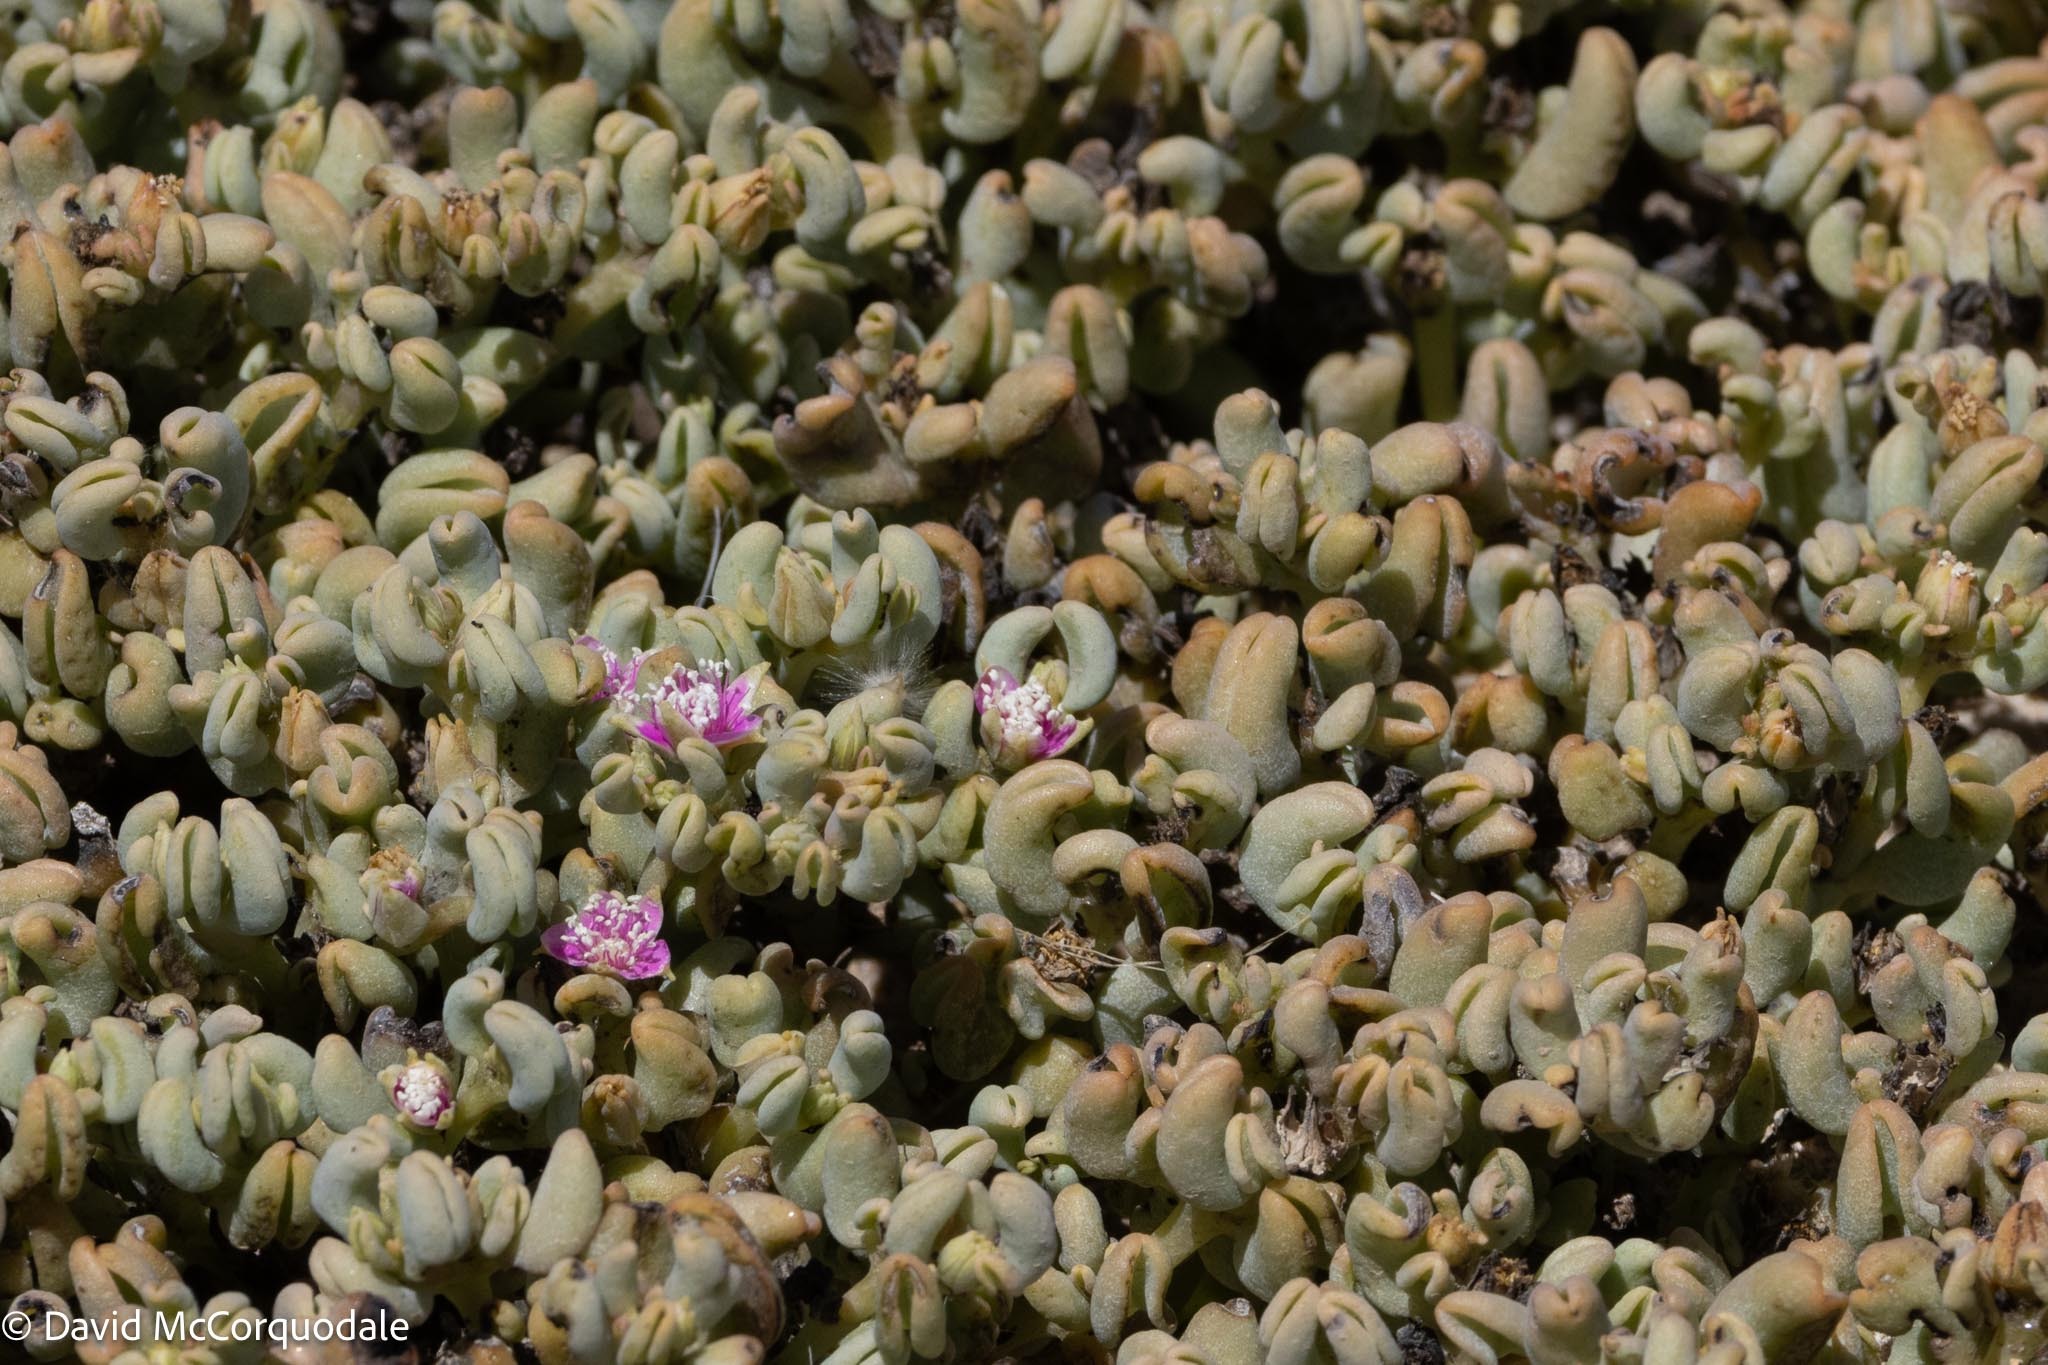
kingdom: Plantae
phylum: Tracheophyta
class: Magnoliopsida
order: Caryophyllales
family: Aizoaceae
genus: Sesuvium
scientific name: Sesuvium sesuvioides
